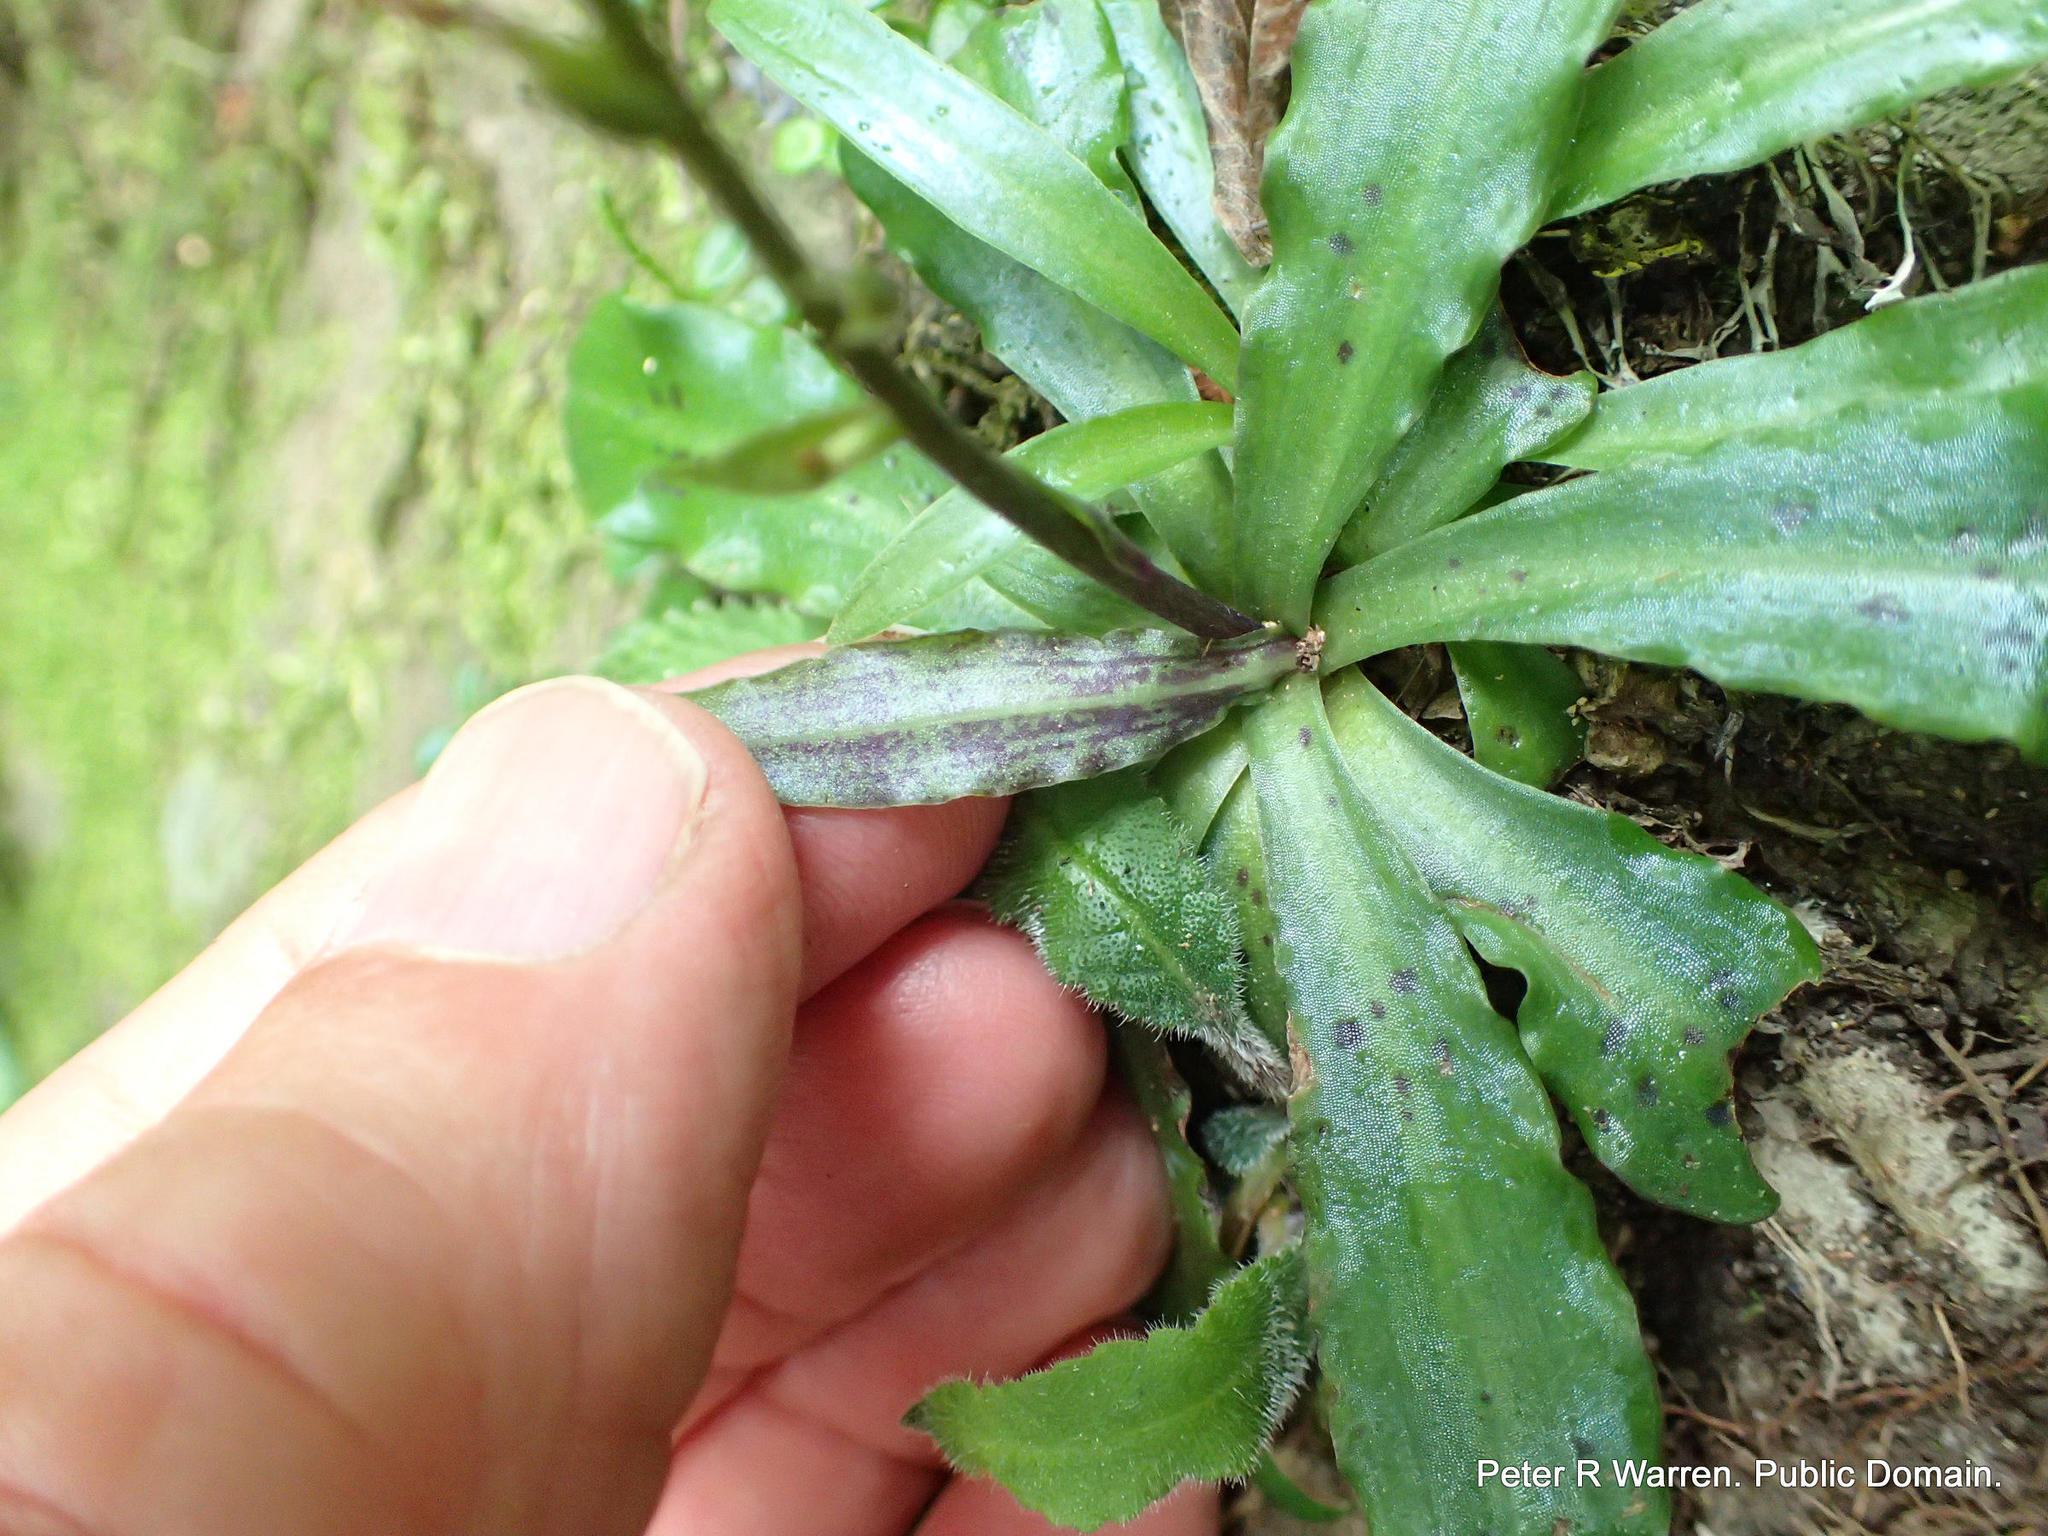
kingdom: Plantae
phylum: Tracheophyta
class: Liliopsida
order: Asparagales
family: Orchidaceae
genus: Stenoglottis
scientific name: Stenoglottis fimbriata
